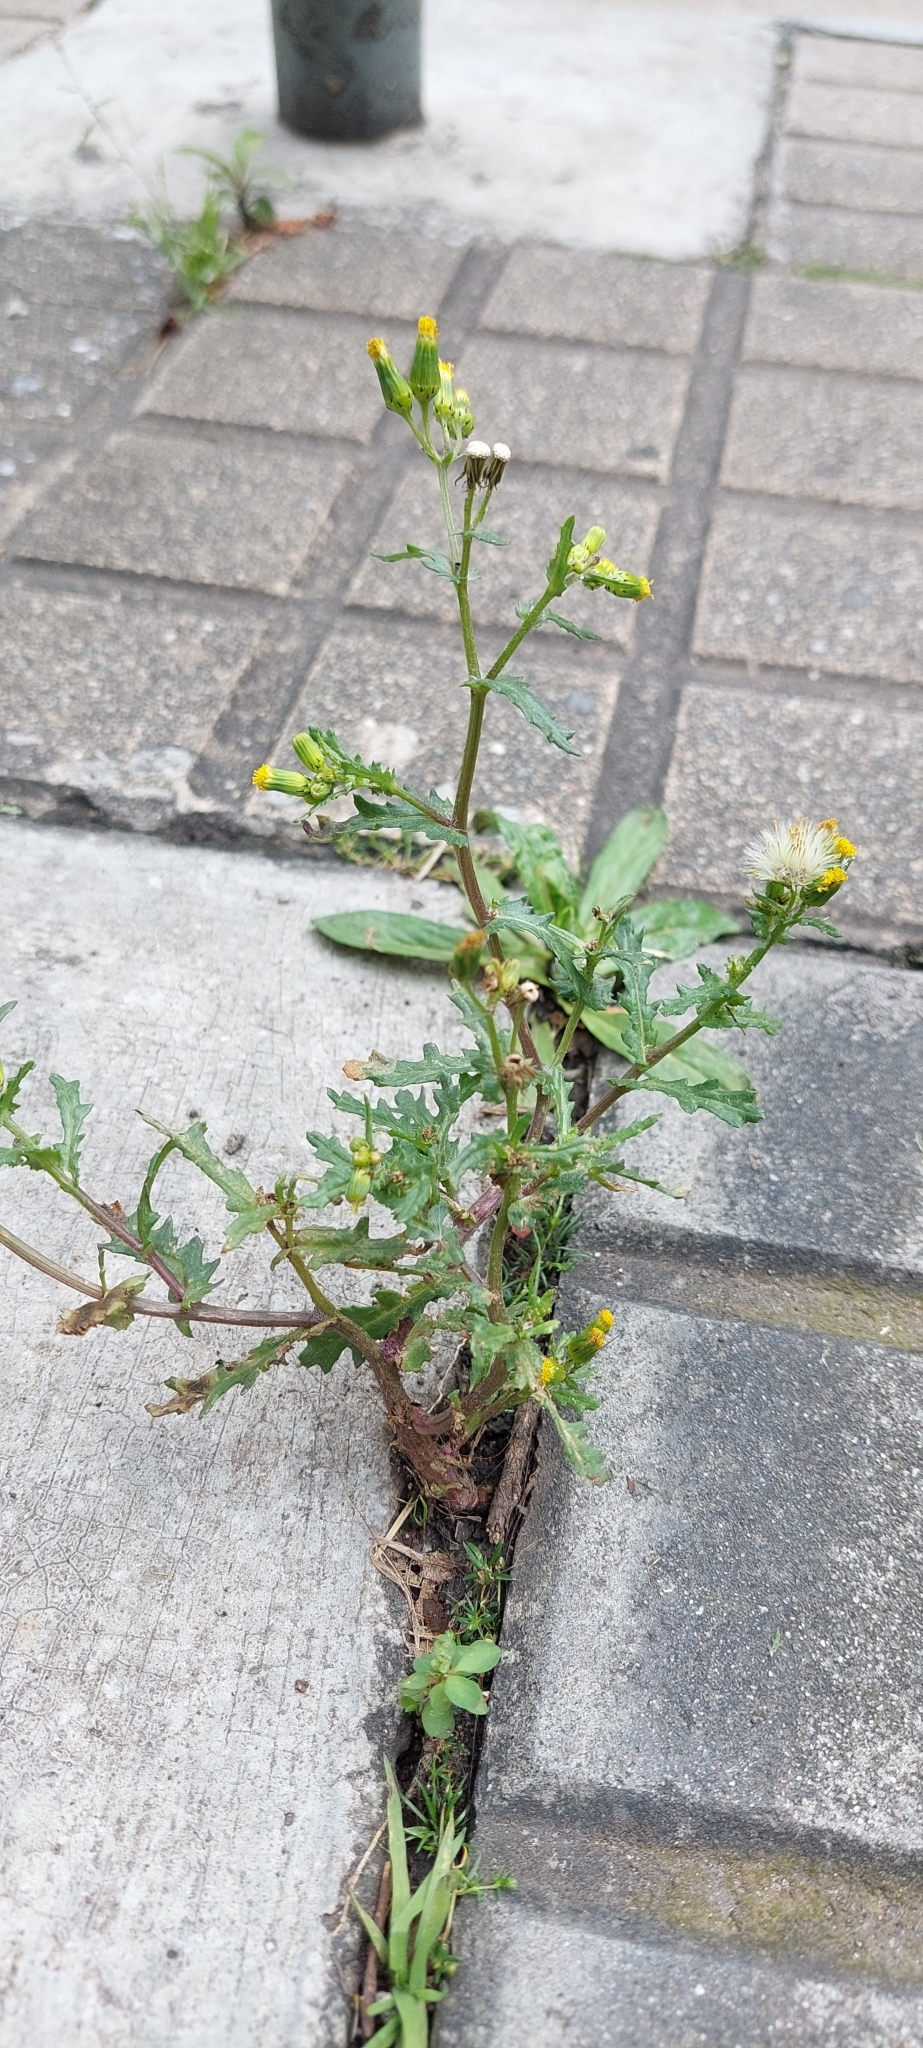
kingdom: Plantae
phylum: Tracheophyta
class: Magnoliopsida
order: Asterales
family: Asteraceae
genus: Senecio
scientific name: Senecio vulgaris
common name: Old-man-in-the-spring
